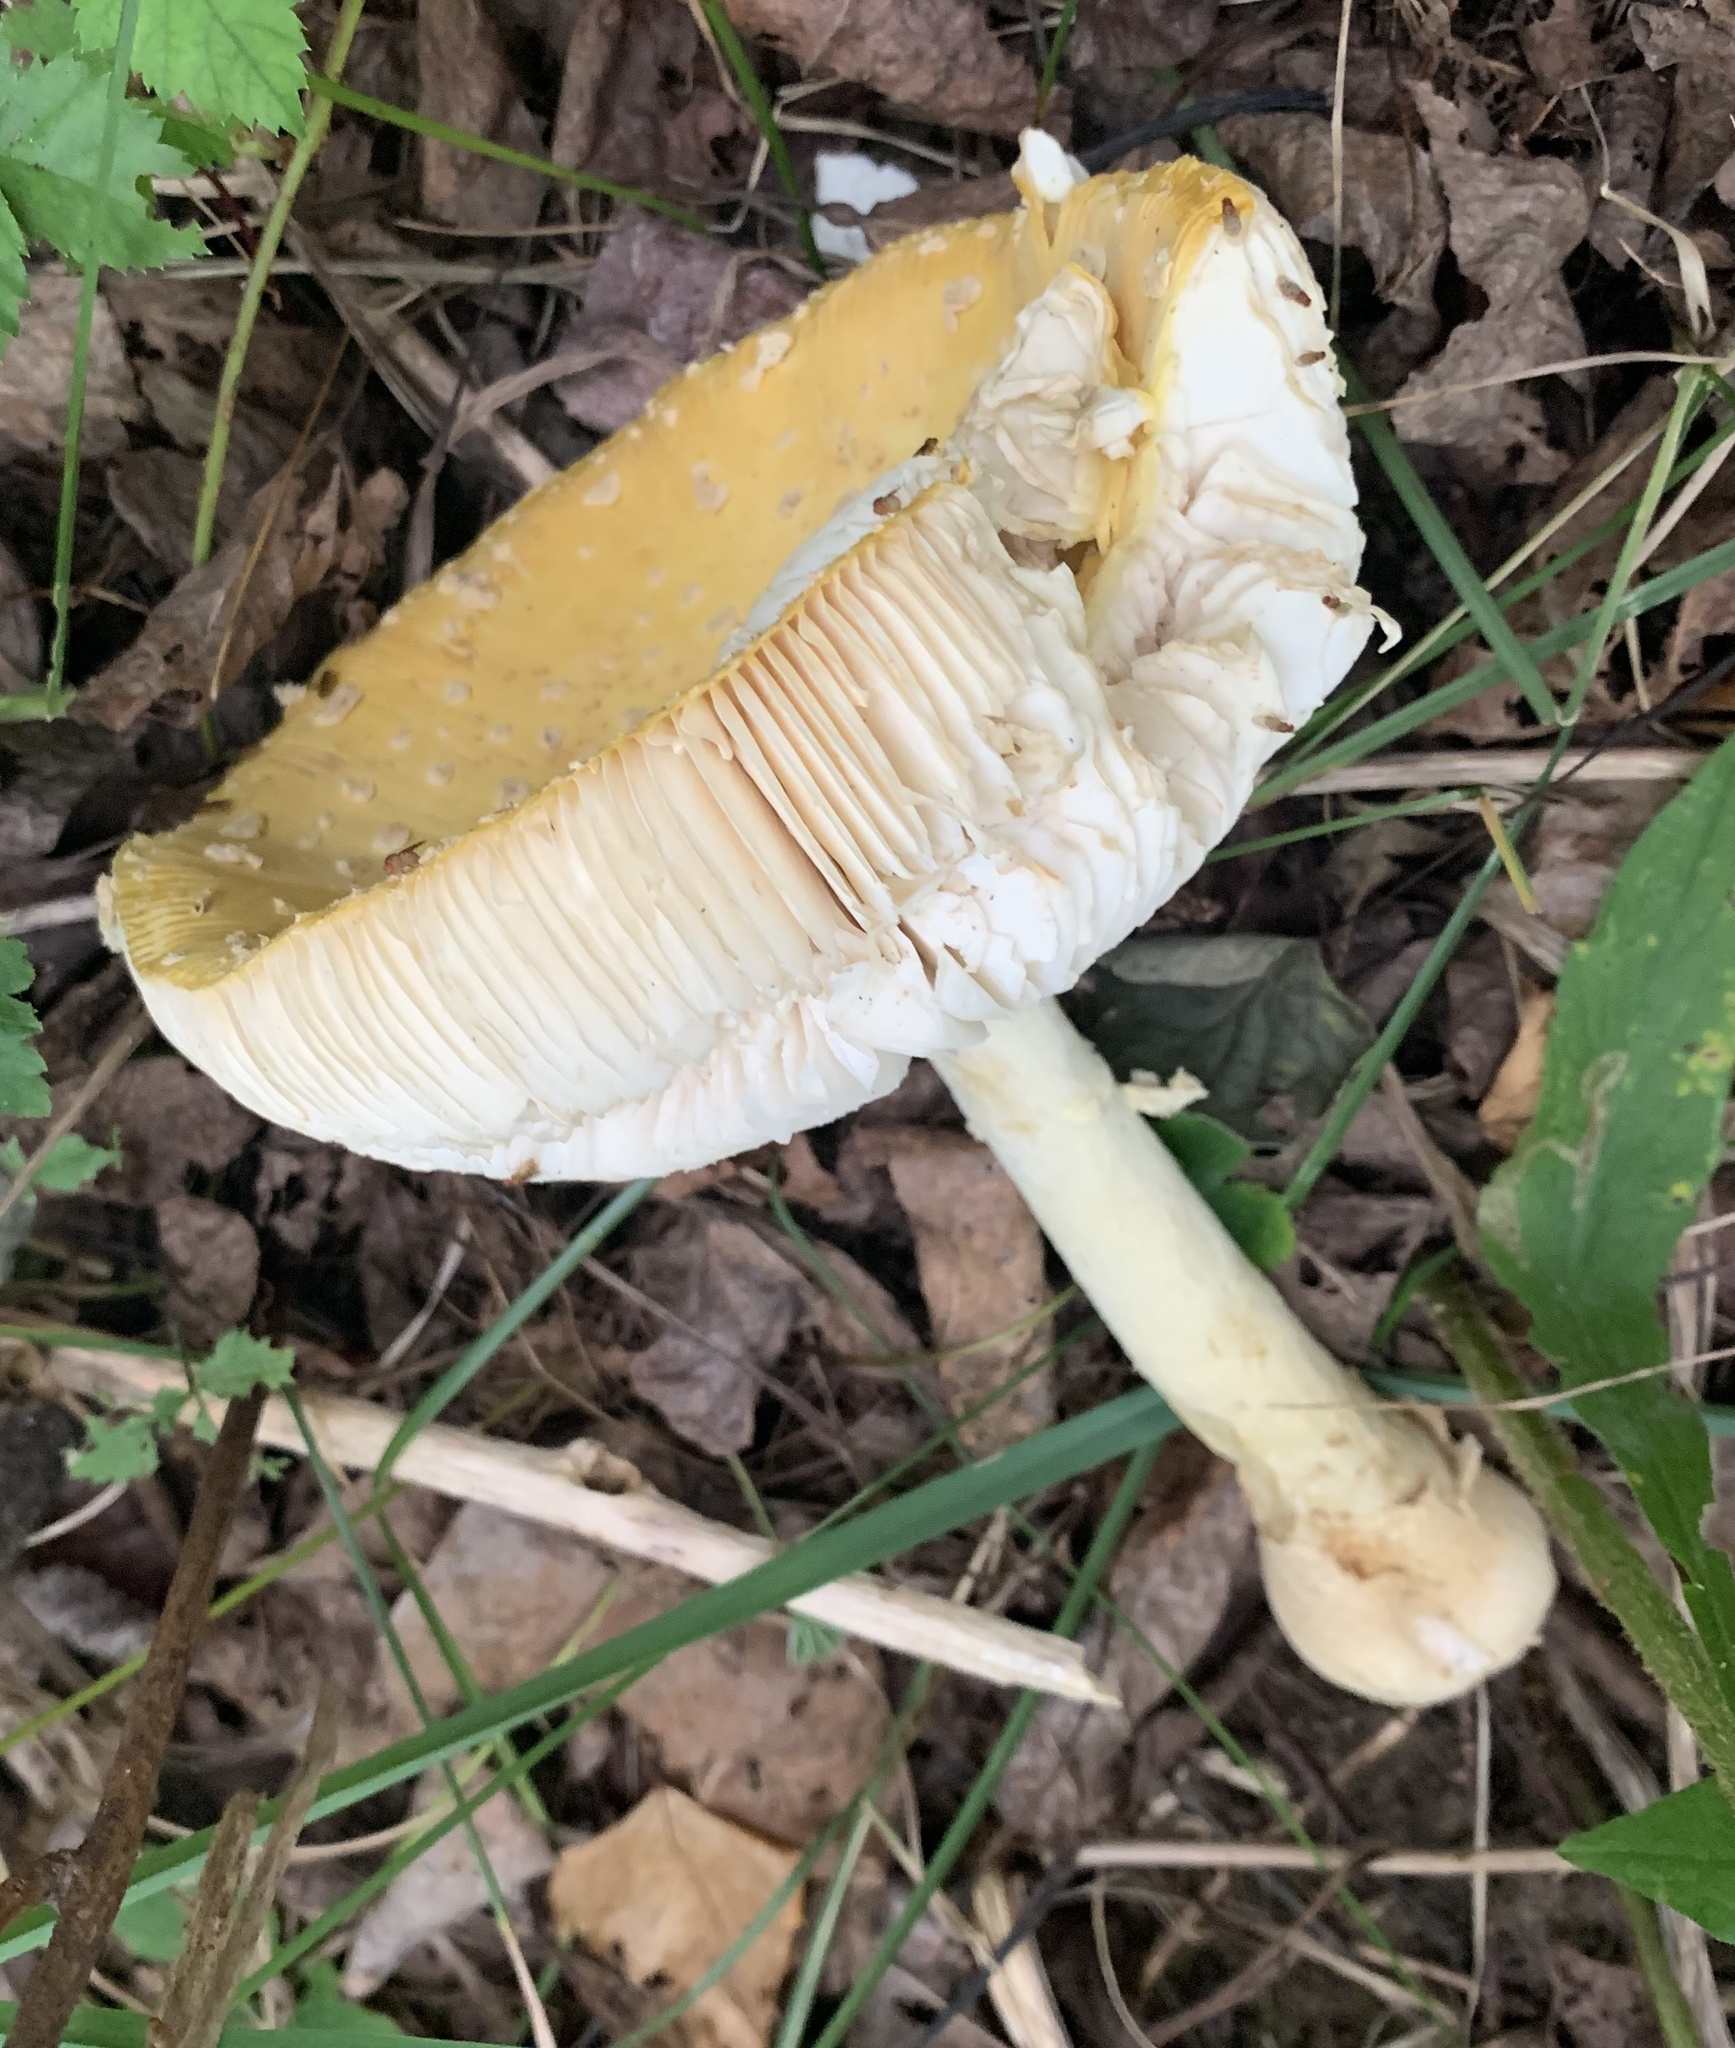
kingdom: Fungi
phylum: Basidiomycota
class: Agaricomycetes
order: Agaricales
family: Amanitaceae
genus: Amanita
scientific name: Amanita muscaria
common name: Fly agaric
